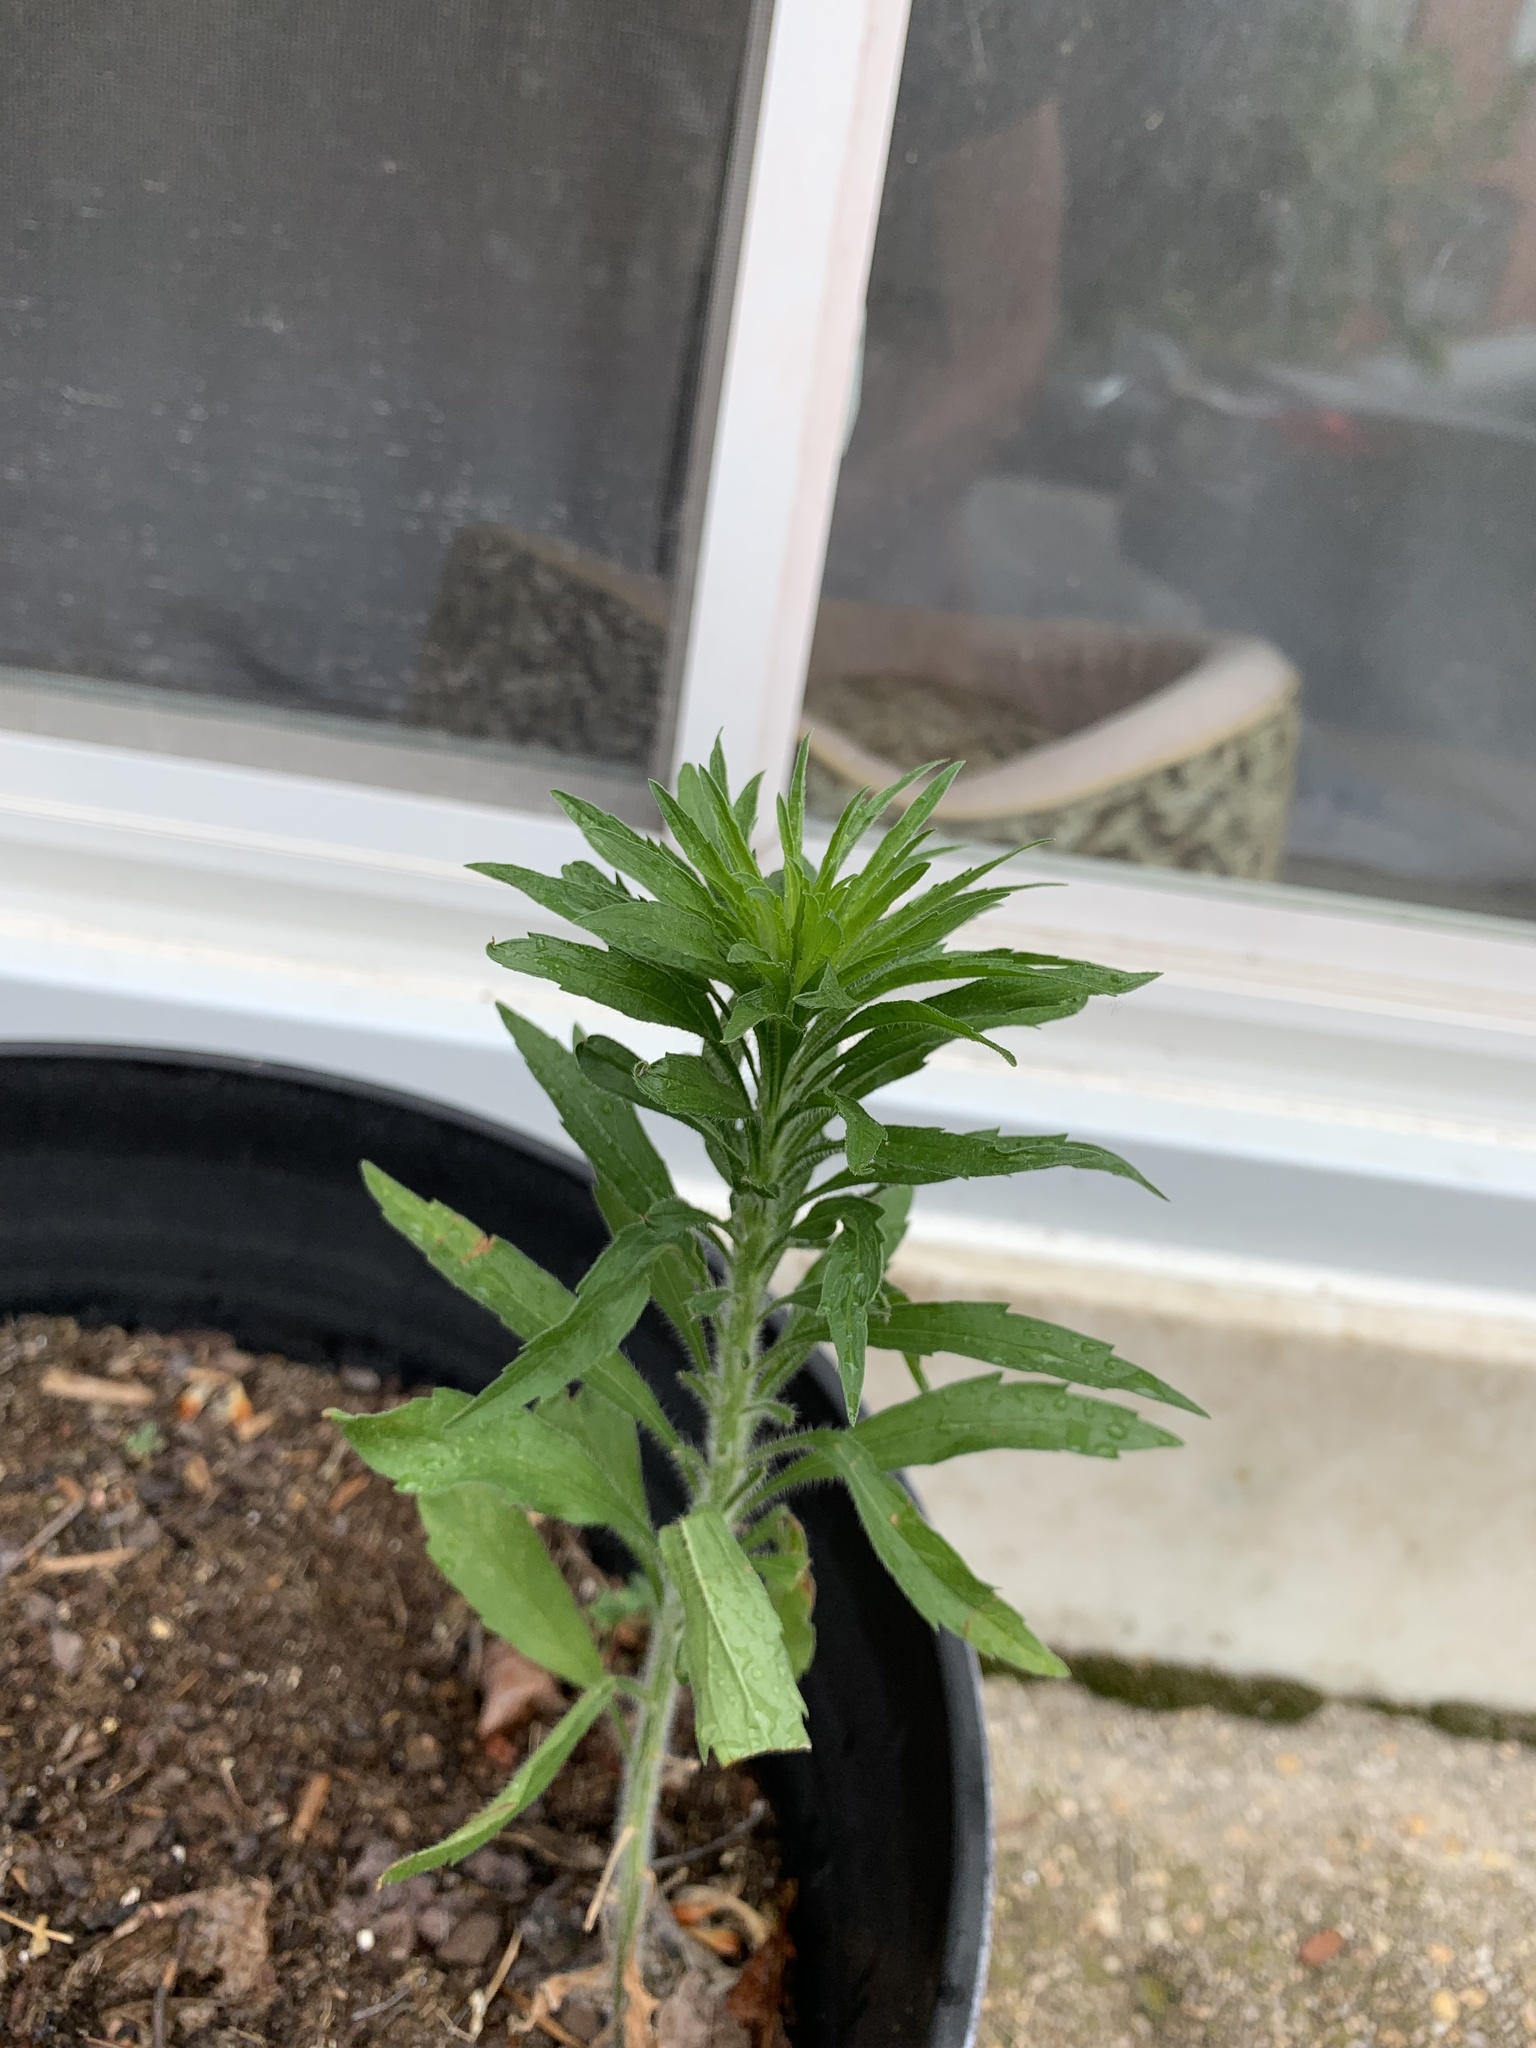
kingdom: Plantae
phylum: Tracheophyta
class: Magnoliopsida
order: Asterales
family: Asteraceae
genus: Erigeron
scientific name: Erigeron canadensis
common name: Canadian fleabane
